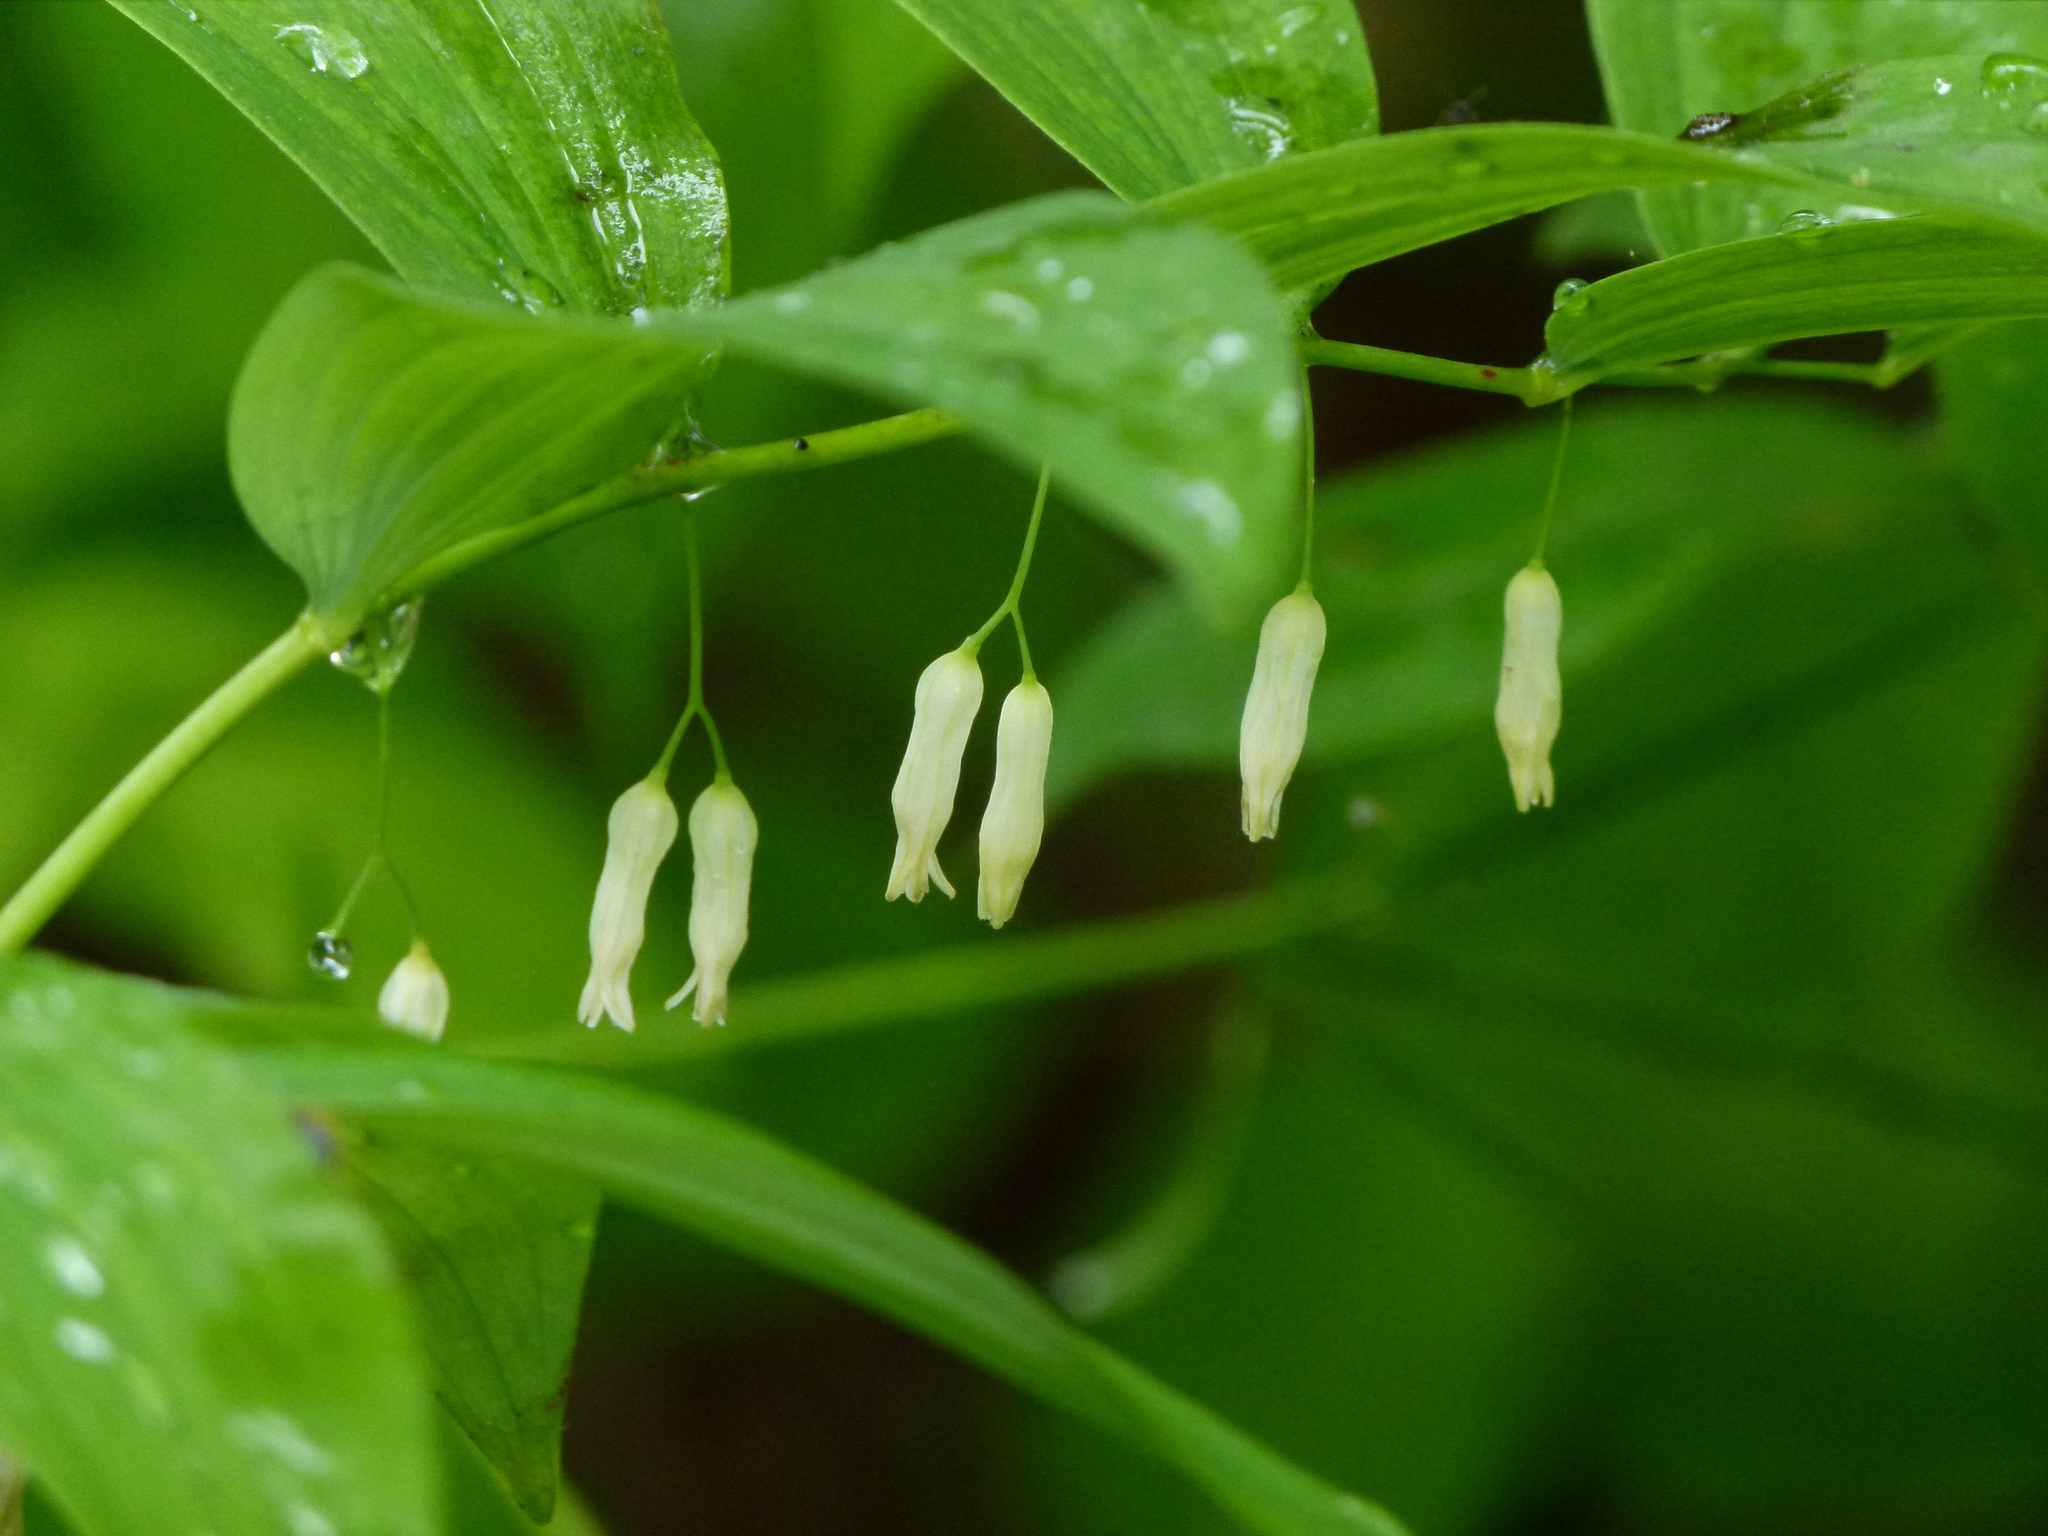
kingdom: Plantae
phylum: Tracheophyta
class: Liliopsida
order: Asparagales
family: Asparagaceae
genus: Polygonatum
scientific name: Polygonatum biflorum
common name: American solomon's-seal
